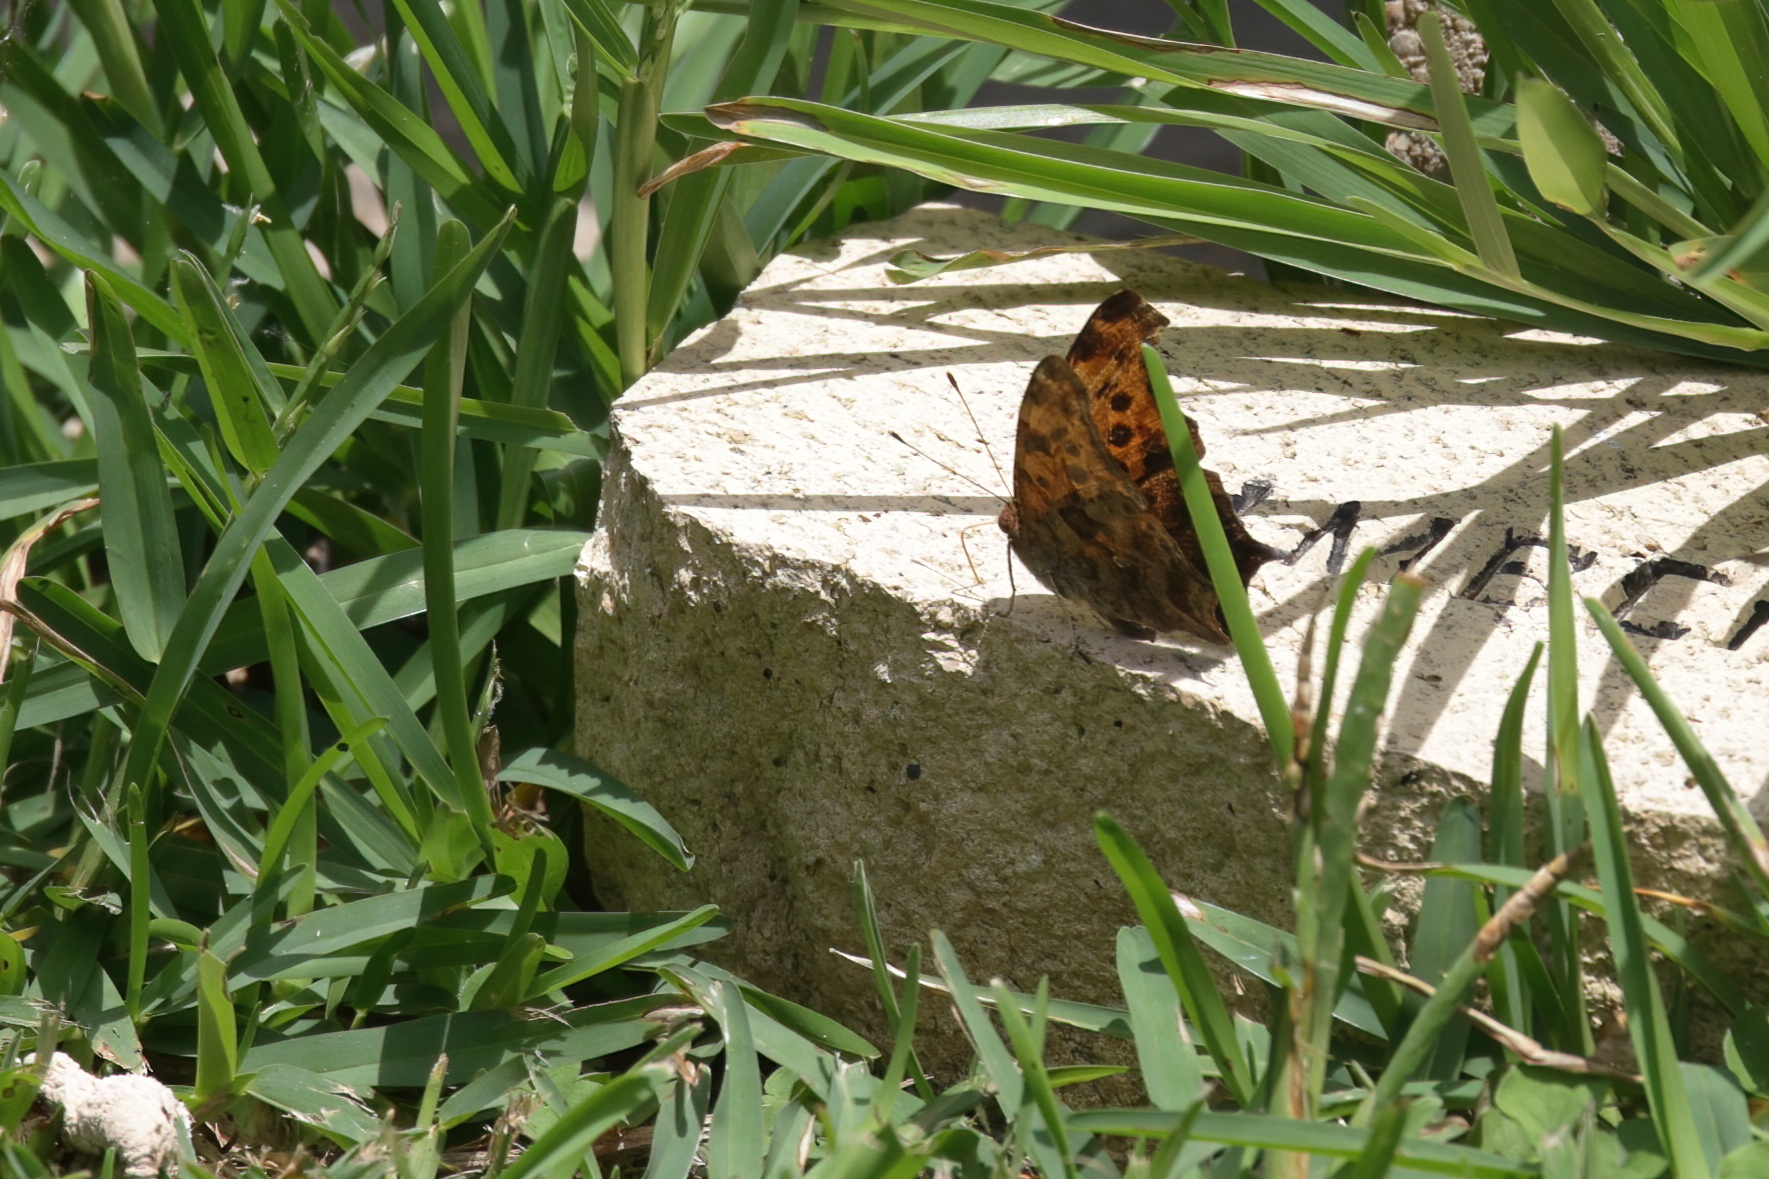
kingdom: Animalia
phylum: Arthropoda
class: Insecta
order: Lepidoptera
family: Nymphalidae
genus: Polygonia
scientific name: Polygonia interrogationis
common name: Question mark
